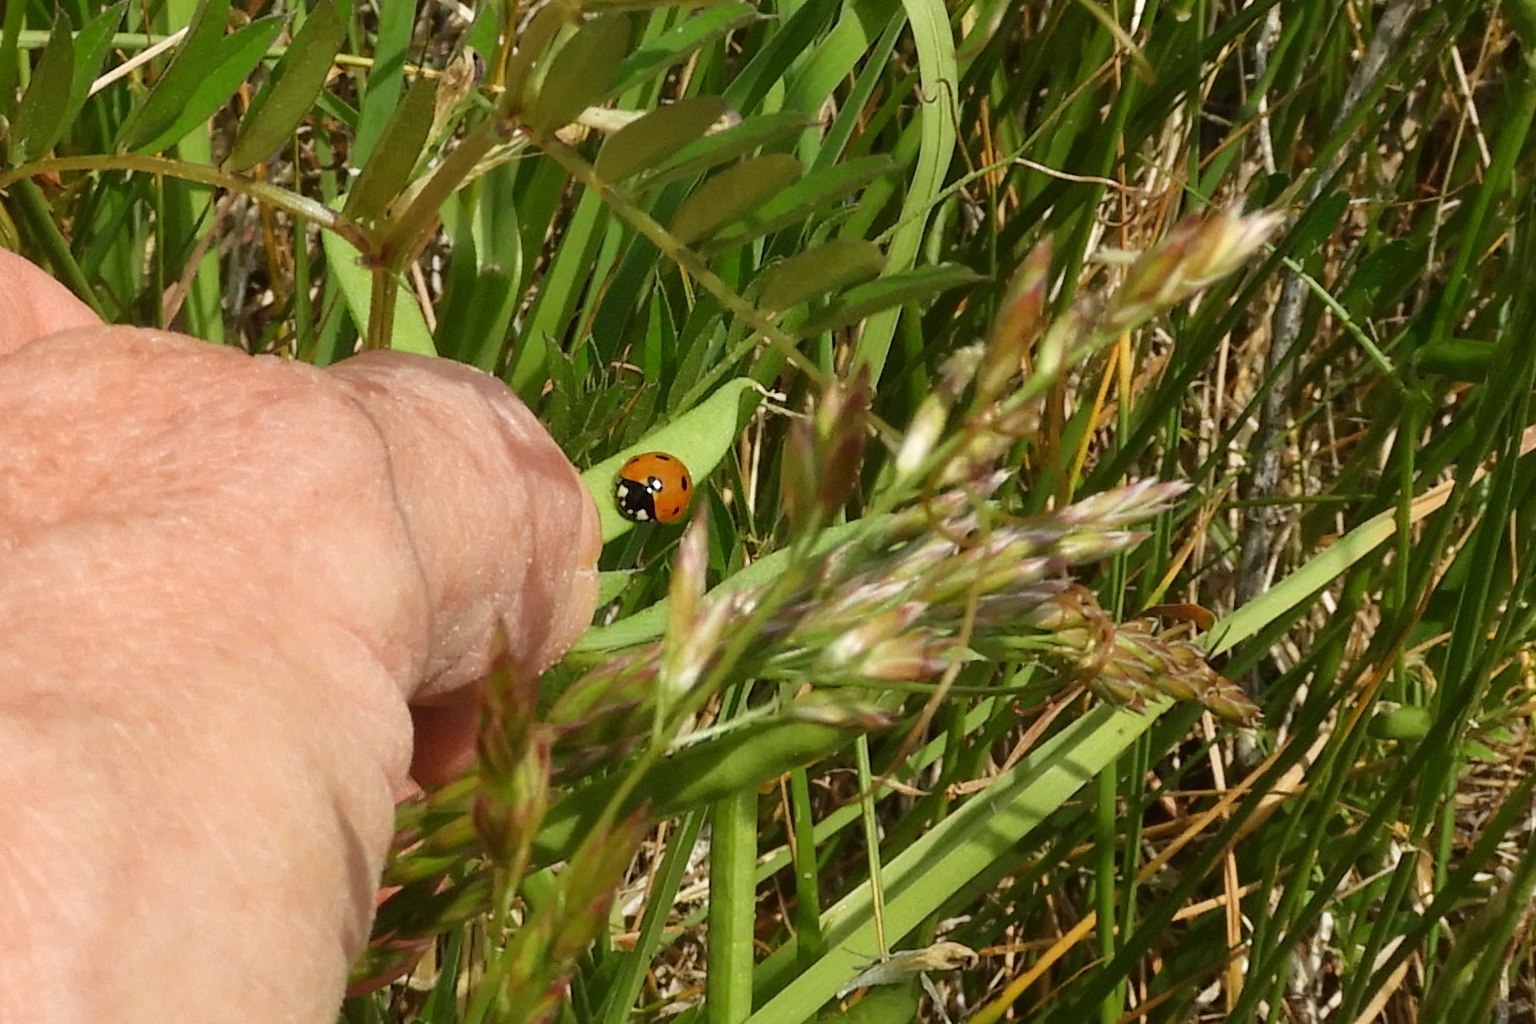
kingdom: Animalia
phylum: Arthropoda
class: Insecta
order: Coleoptera
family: Coccinellidae
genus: Coccinella
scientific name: Coccinella septempunctata
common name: Sevenspotted lady beetle
